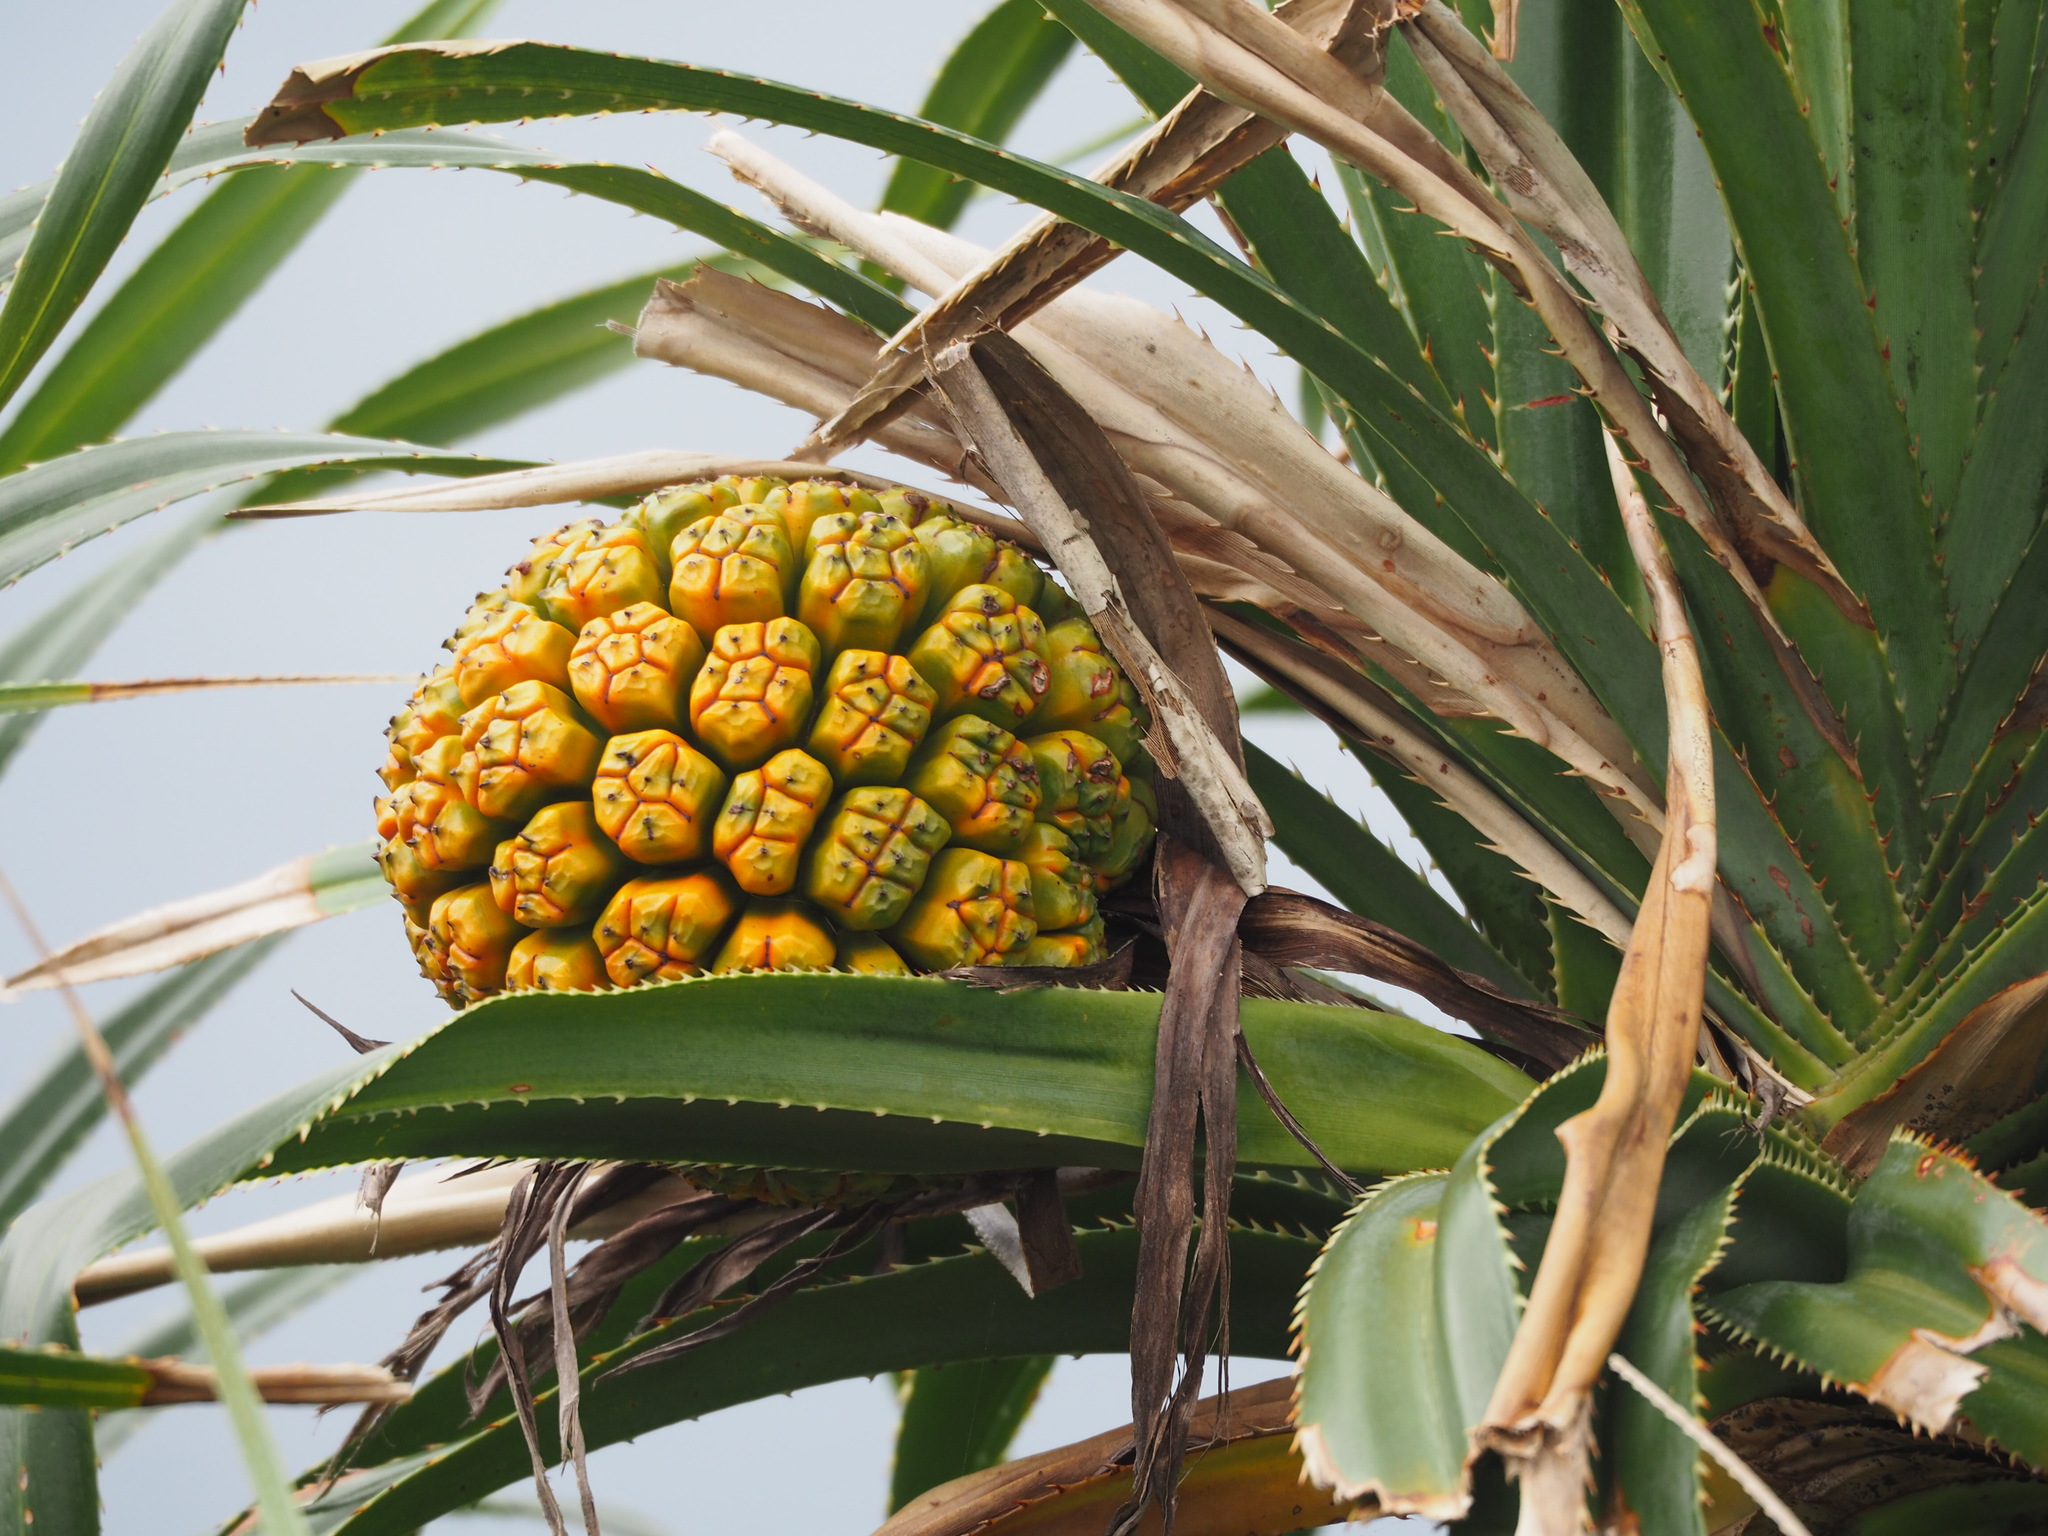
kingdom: Plantae
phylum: Tracheophyta
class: Liliopsida
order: Pandanales
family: Pandanaceae
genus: Pandanus
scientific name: Pandanus odorifer
